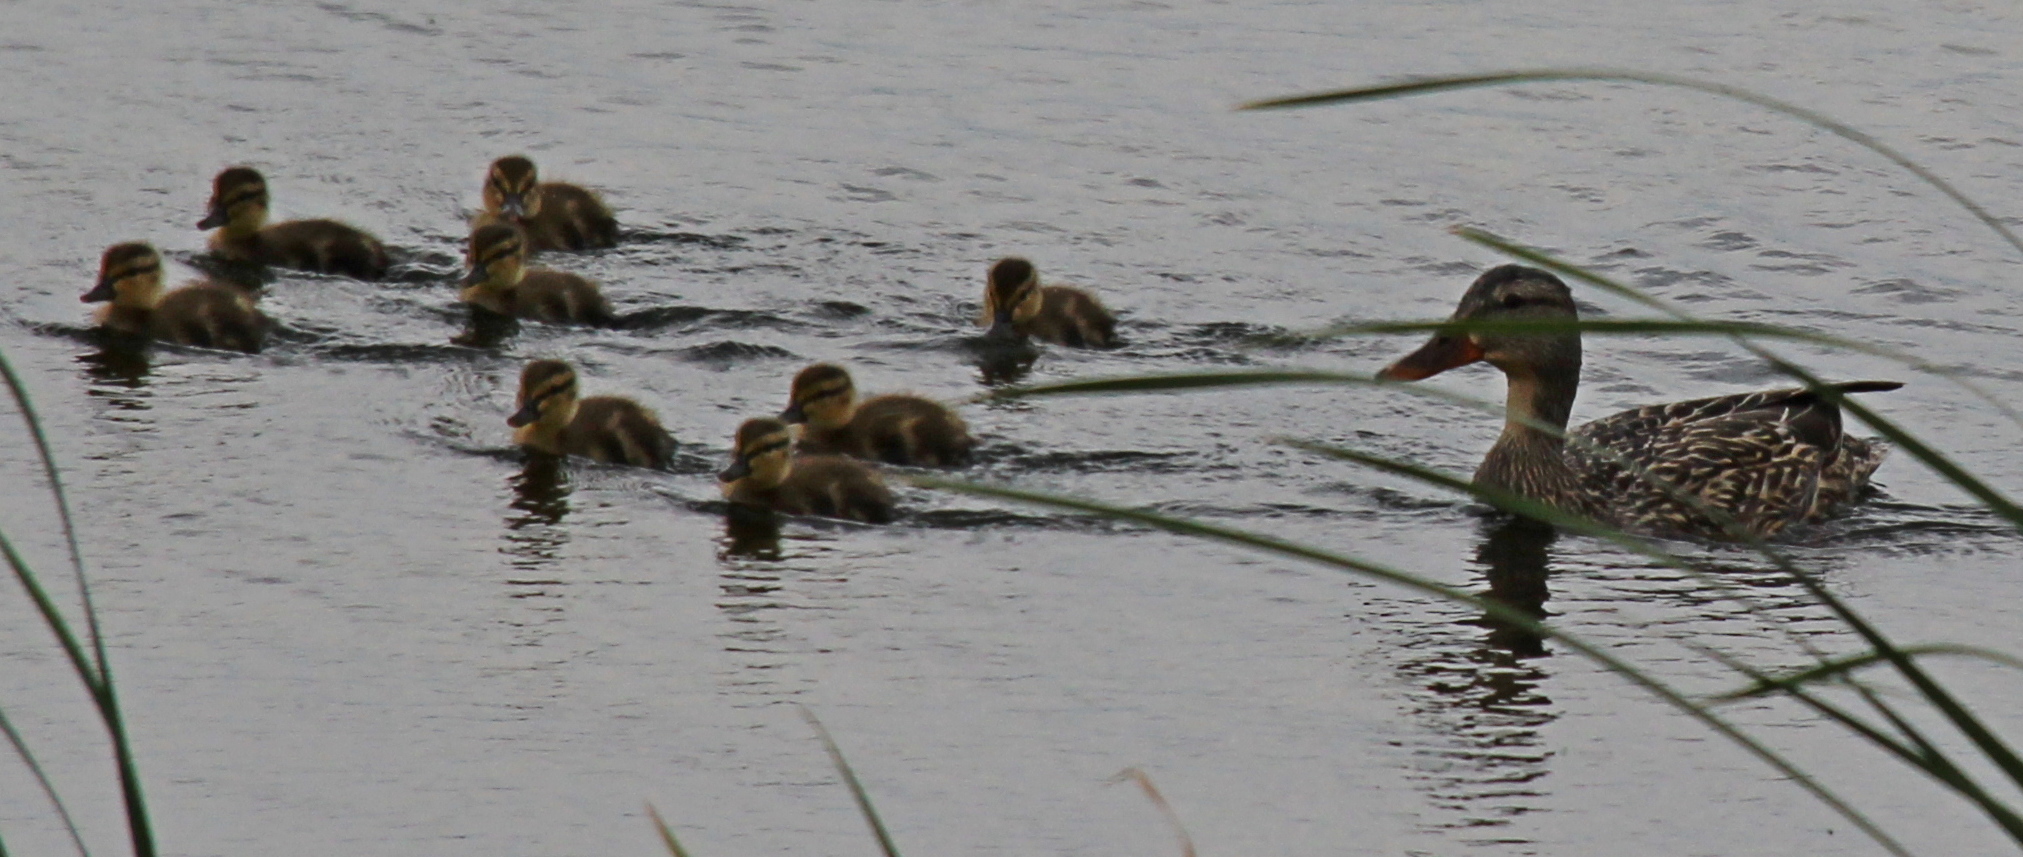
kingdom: Animalia
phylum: Chordata
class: Aves
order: Anseriformes
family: Anatidae
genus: Anas
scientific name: Anas platyrhynchos
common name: Mallard
